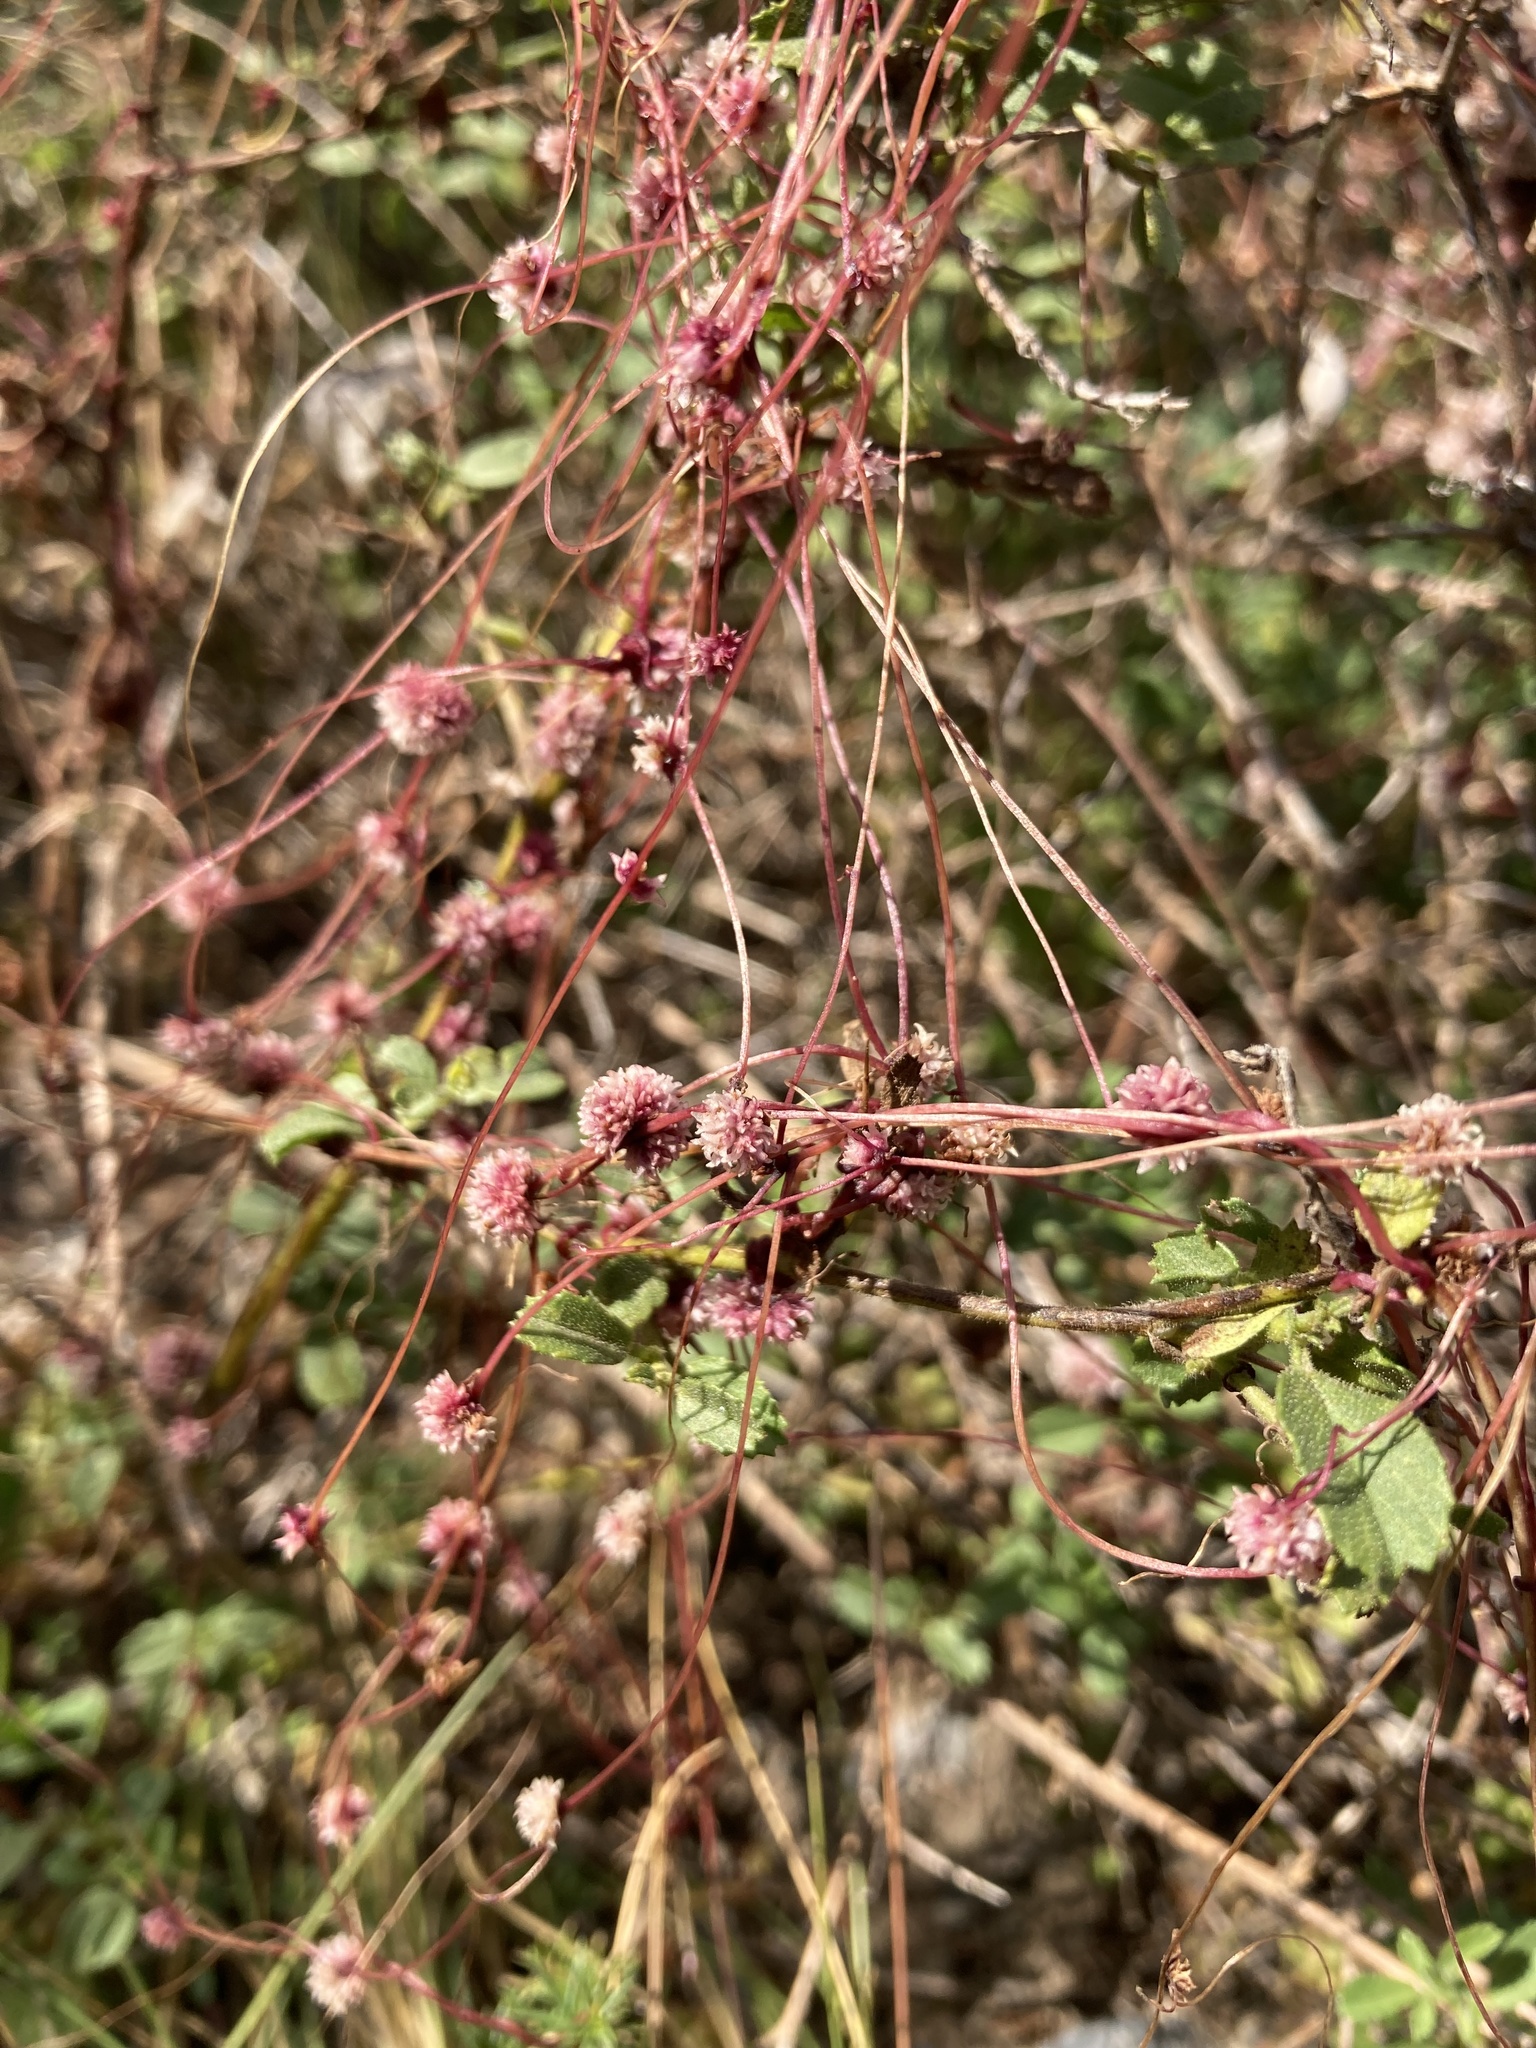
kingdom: Plantae
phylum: Tracheophyta
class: Magnoliopsida
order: Solanales
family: Convolvulaceae
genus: Cuscuta
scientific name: Cuscuta epithymum
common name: Clover dodder
